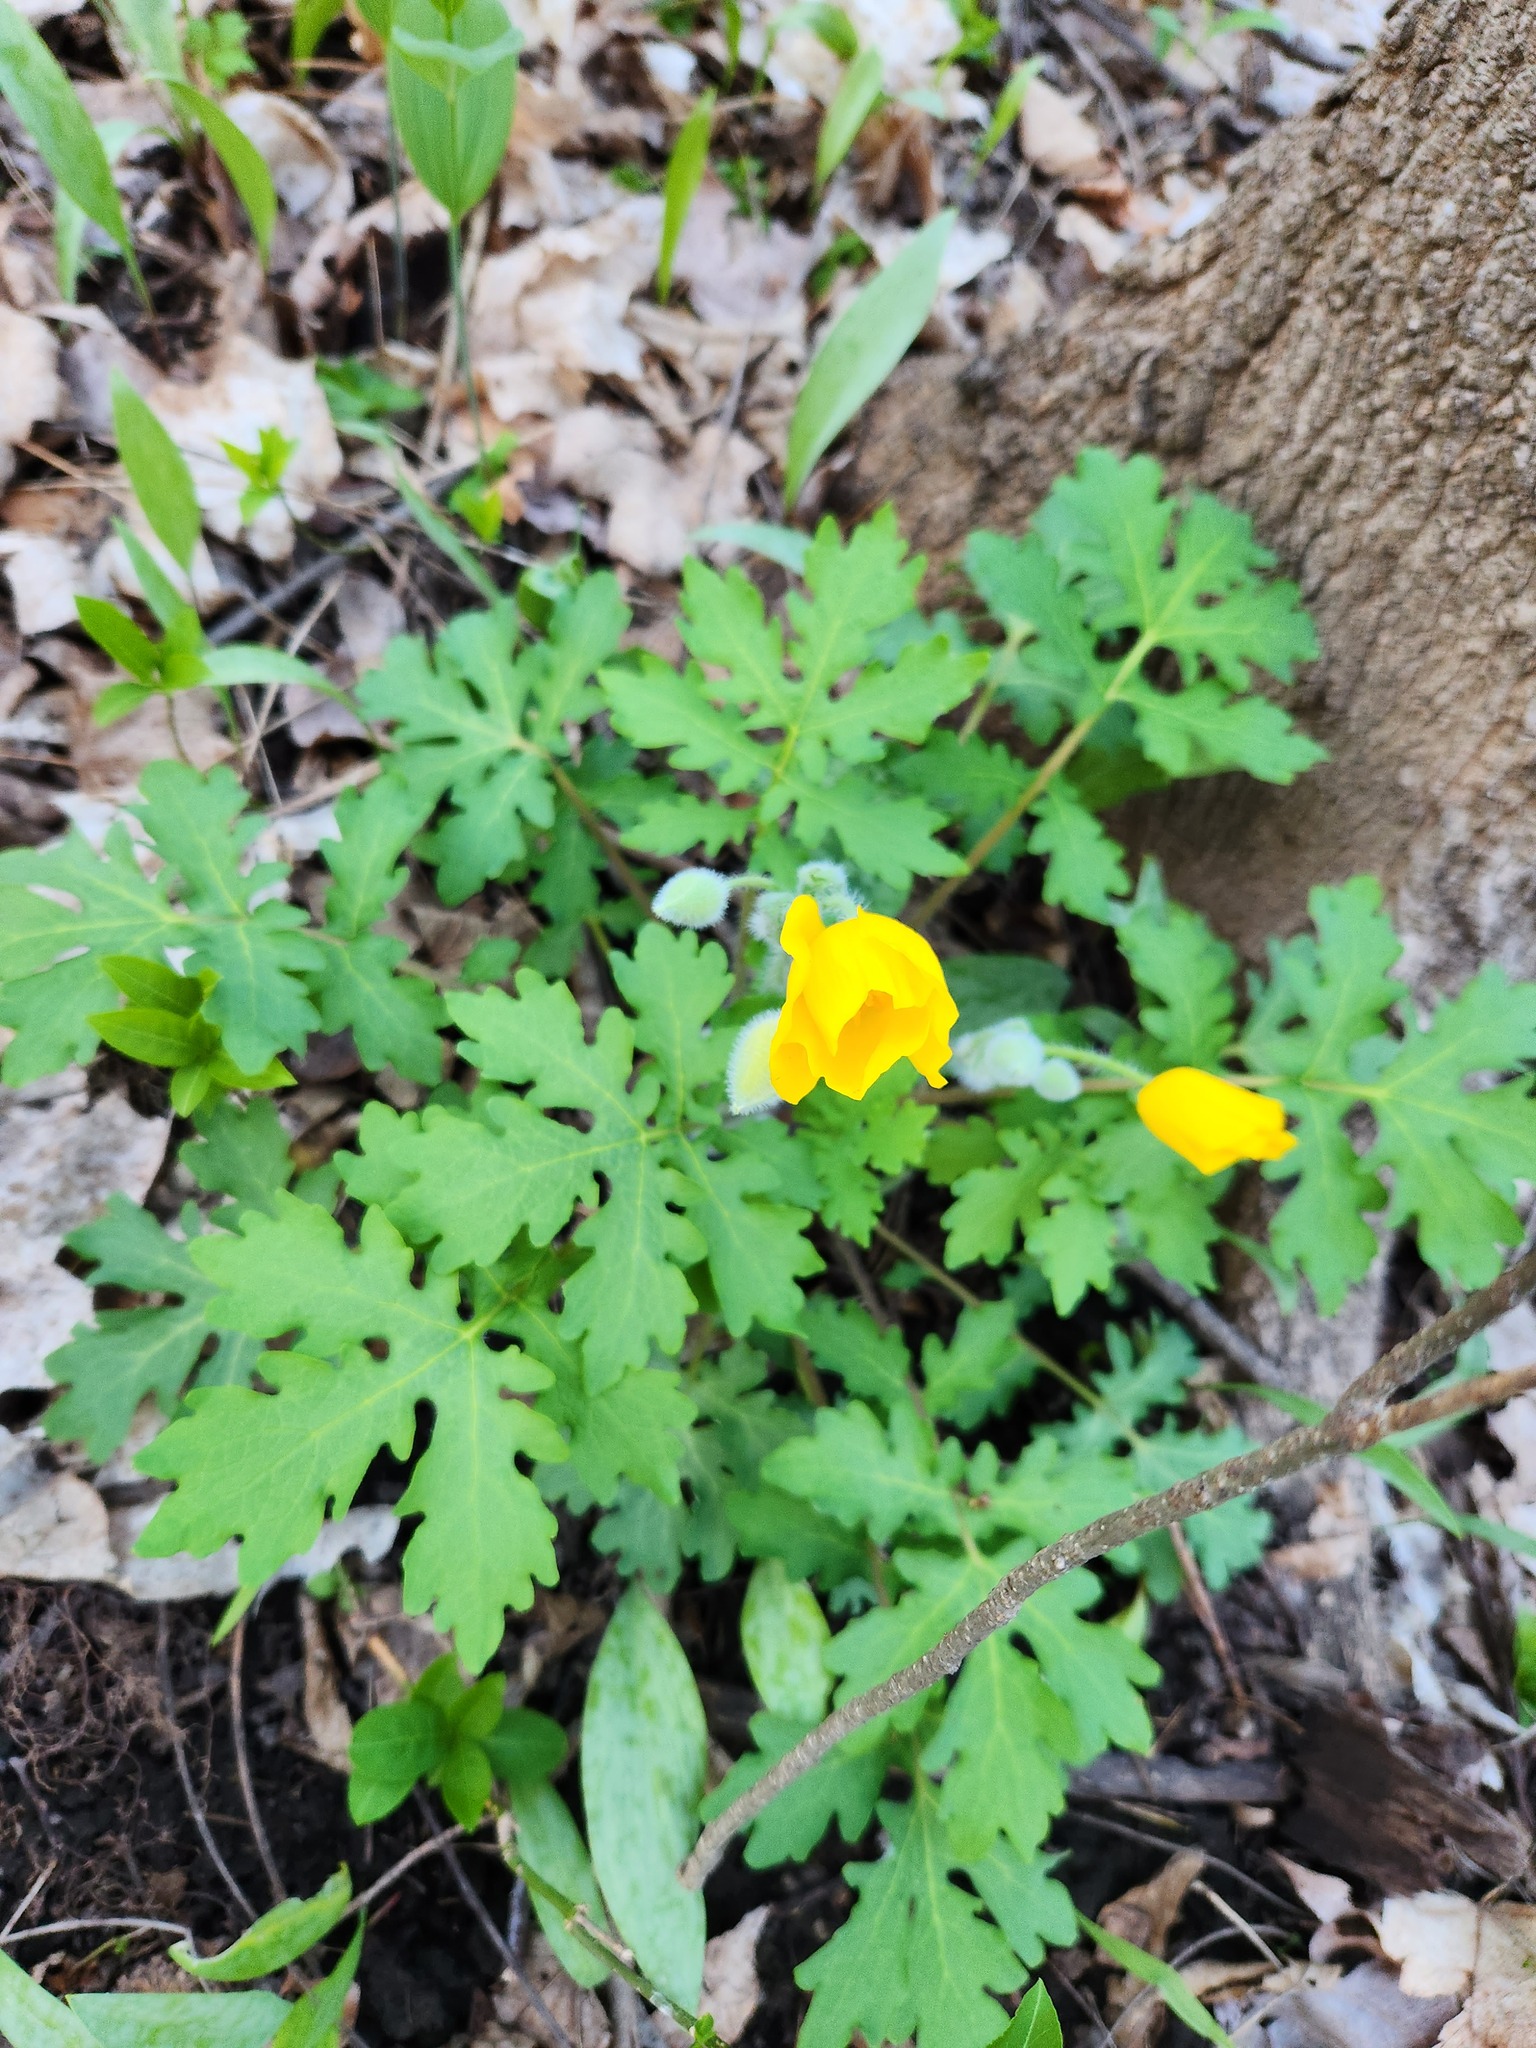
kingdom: Plantae
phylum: Tracheophyta
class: Magnoliopsida
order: Ranunculales
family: Papaveraceae
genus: Stylophorum
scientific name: Stylophorum diphyllum
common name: Celandine poppy
